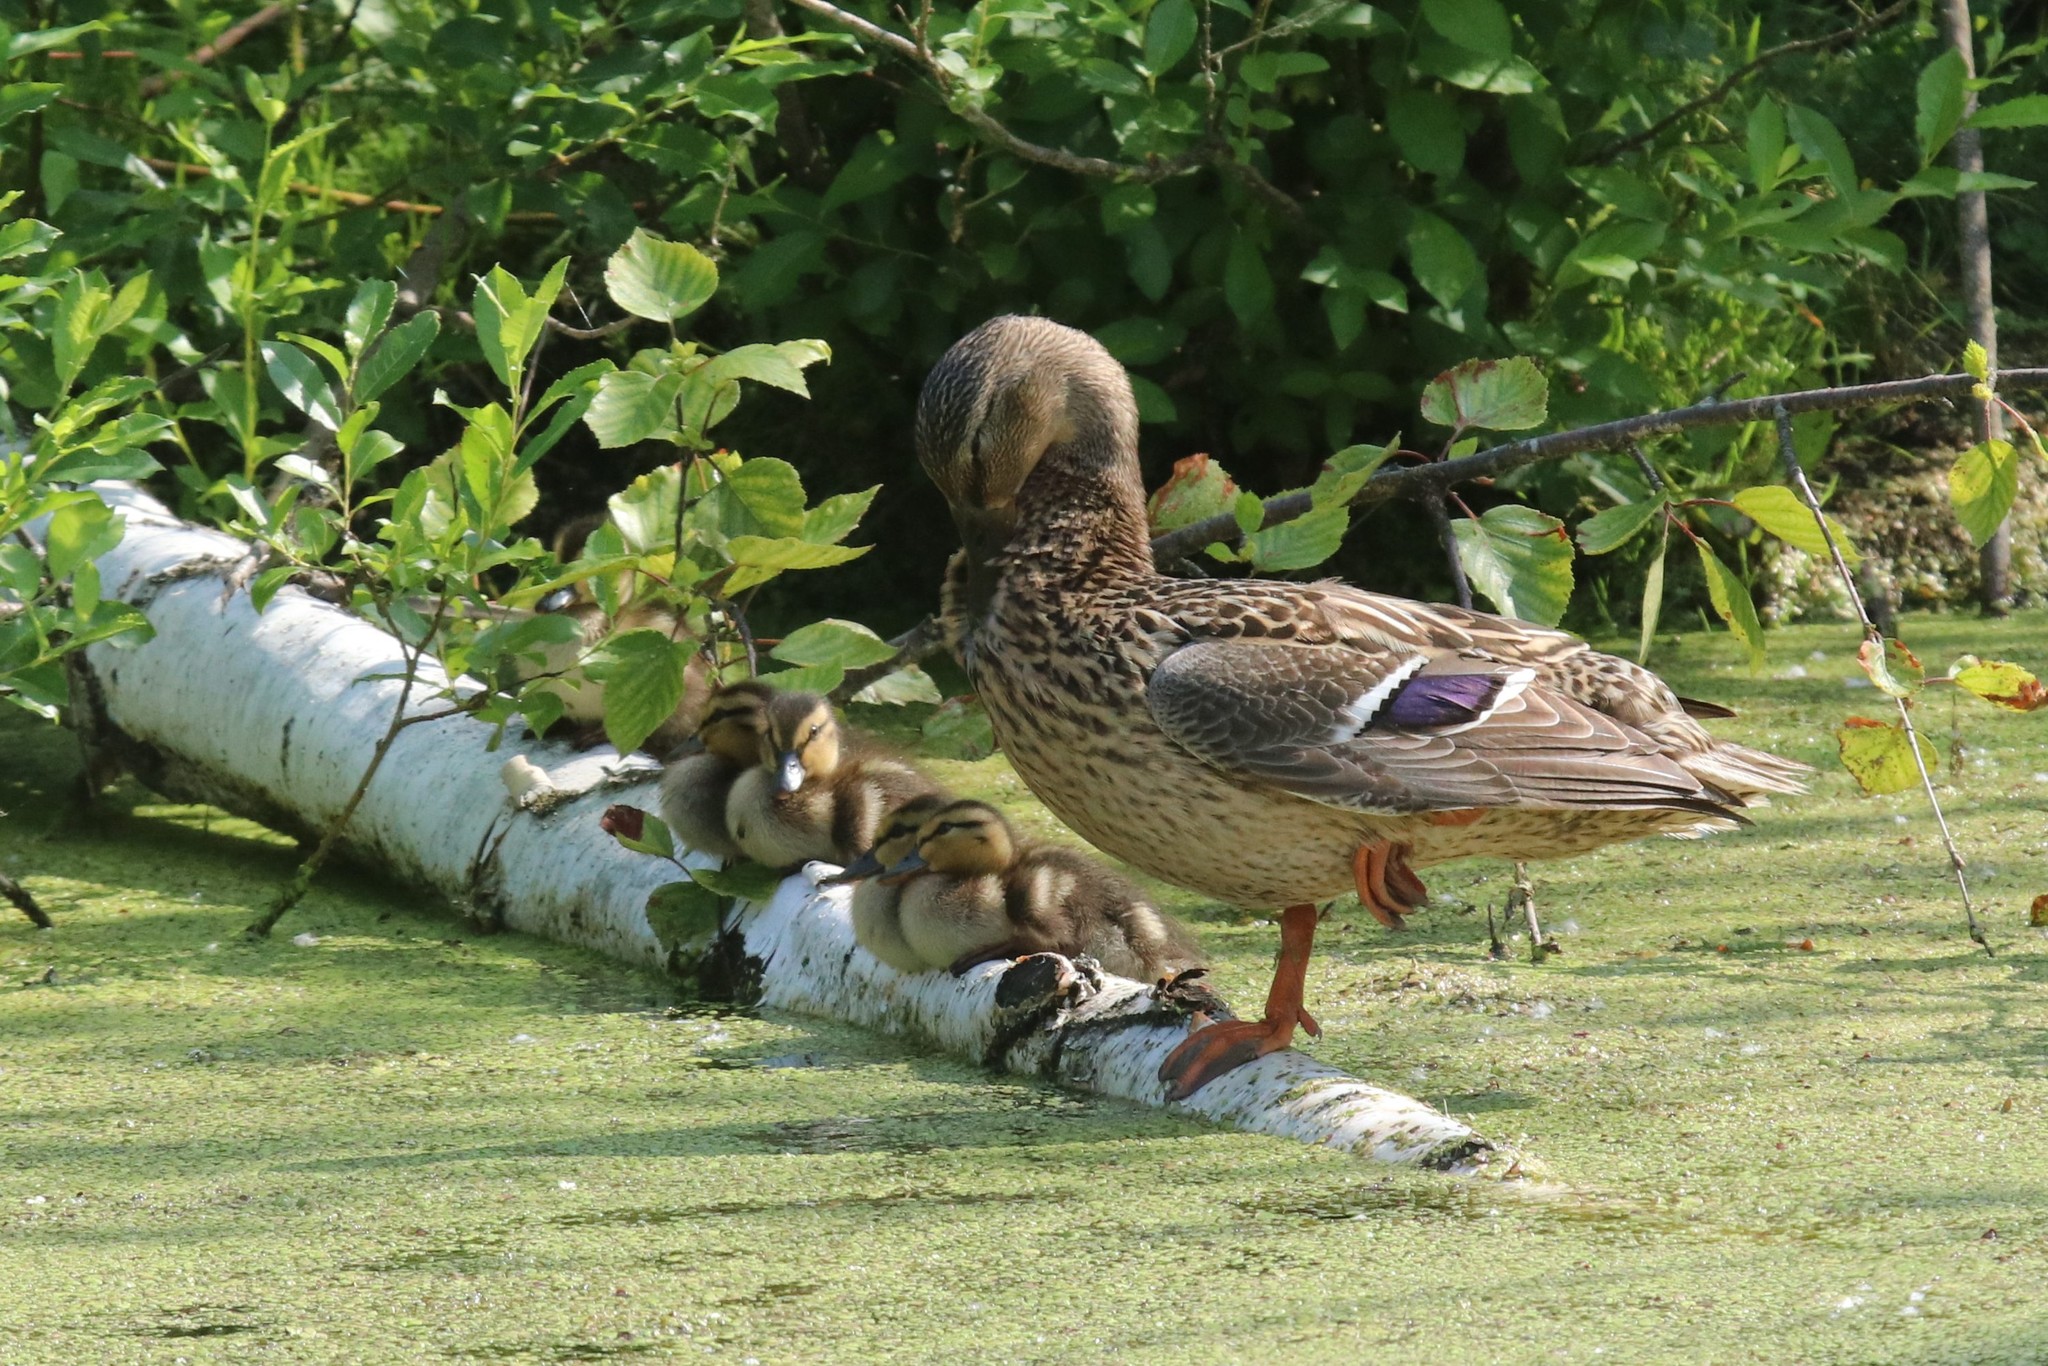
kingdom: Animalia
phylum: Chordata
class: Aves
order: Anseriformes
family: Anatidae
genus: Anas
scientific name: Anas platyrhynchos
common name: Mallard
